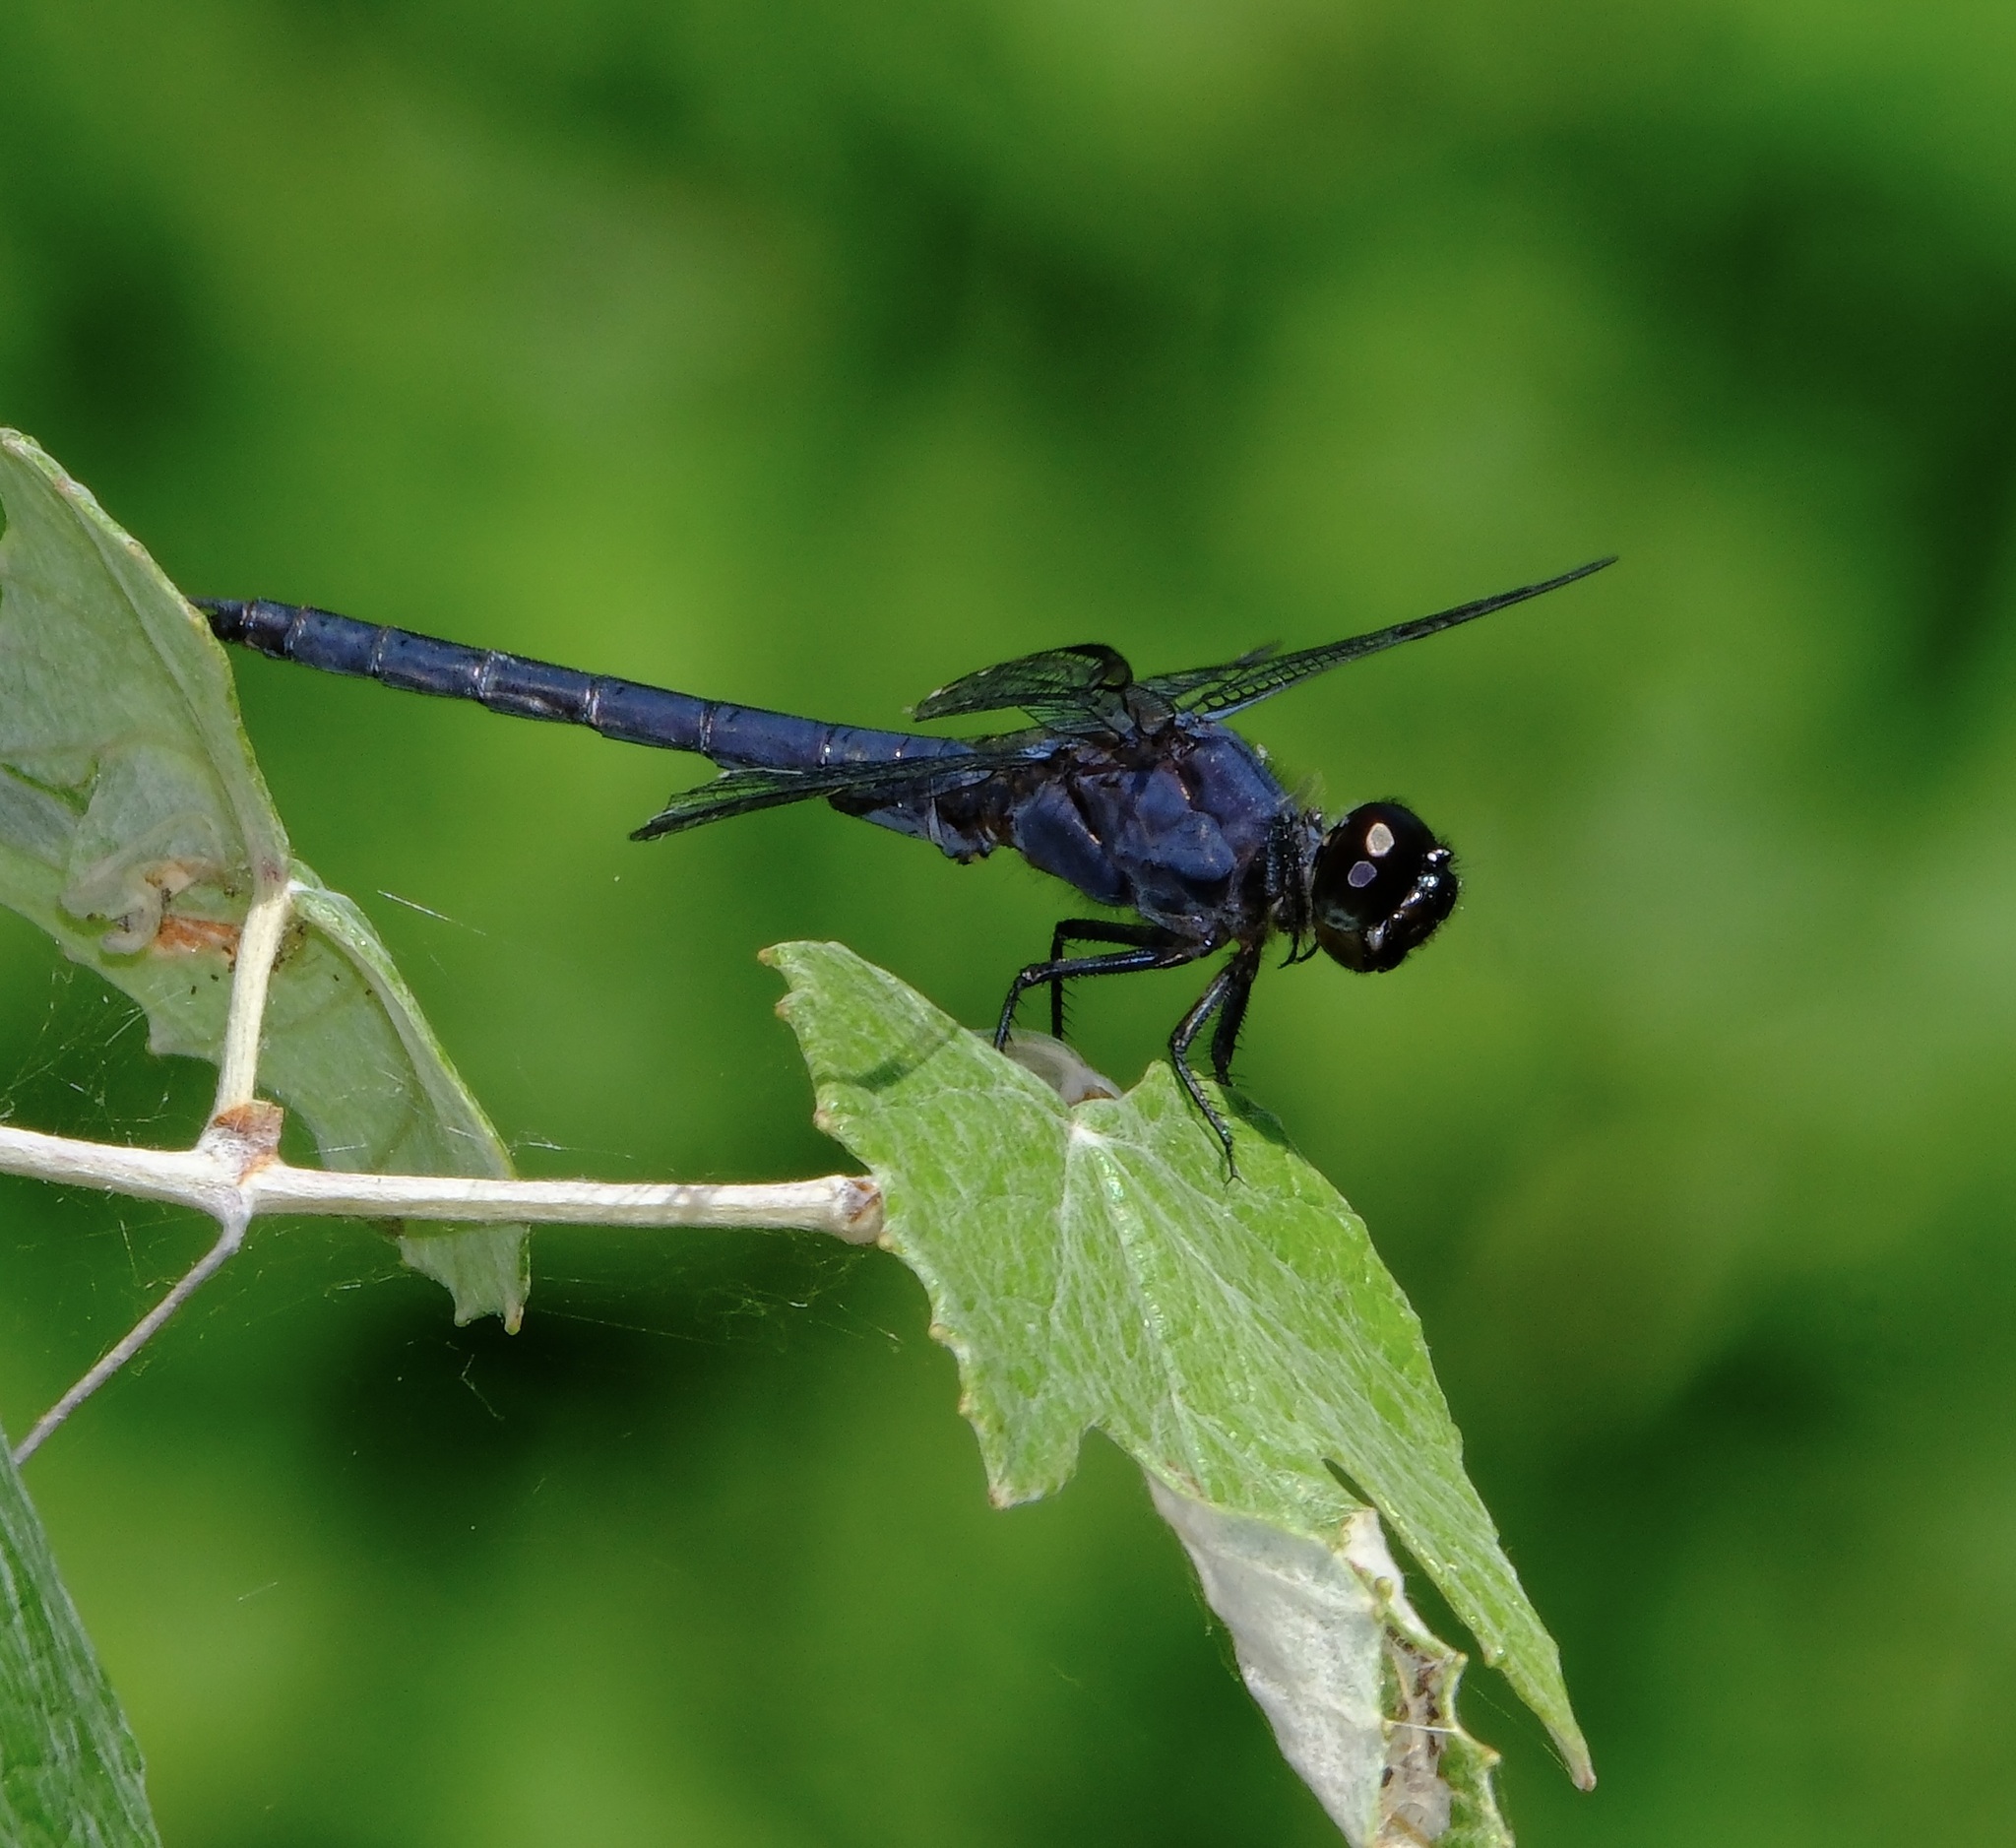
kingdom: Animalia
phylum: Arthropoda
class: Insecta
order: Odonata
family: Libellulidae
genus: Libellula
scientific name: Libellula incesta
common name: Slaty skimmer
